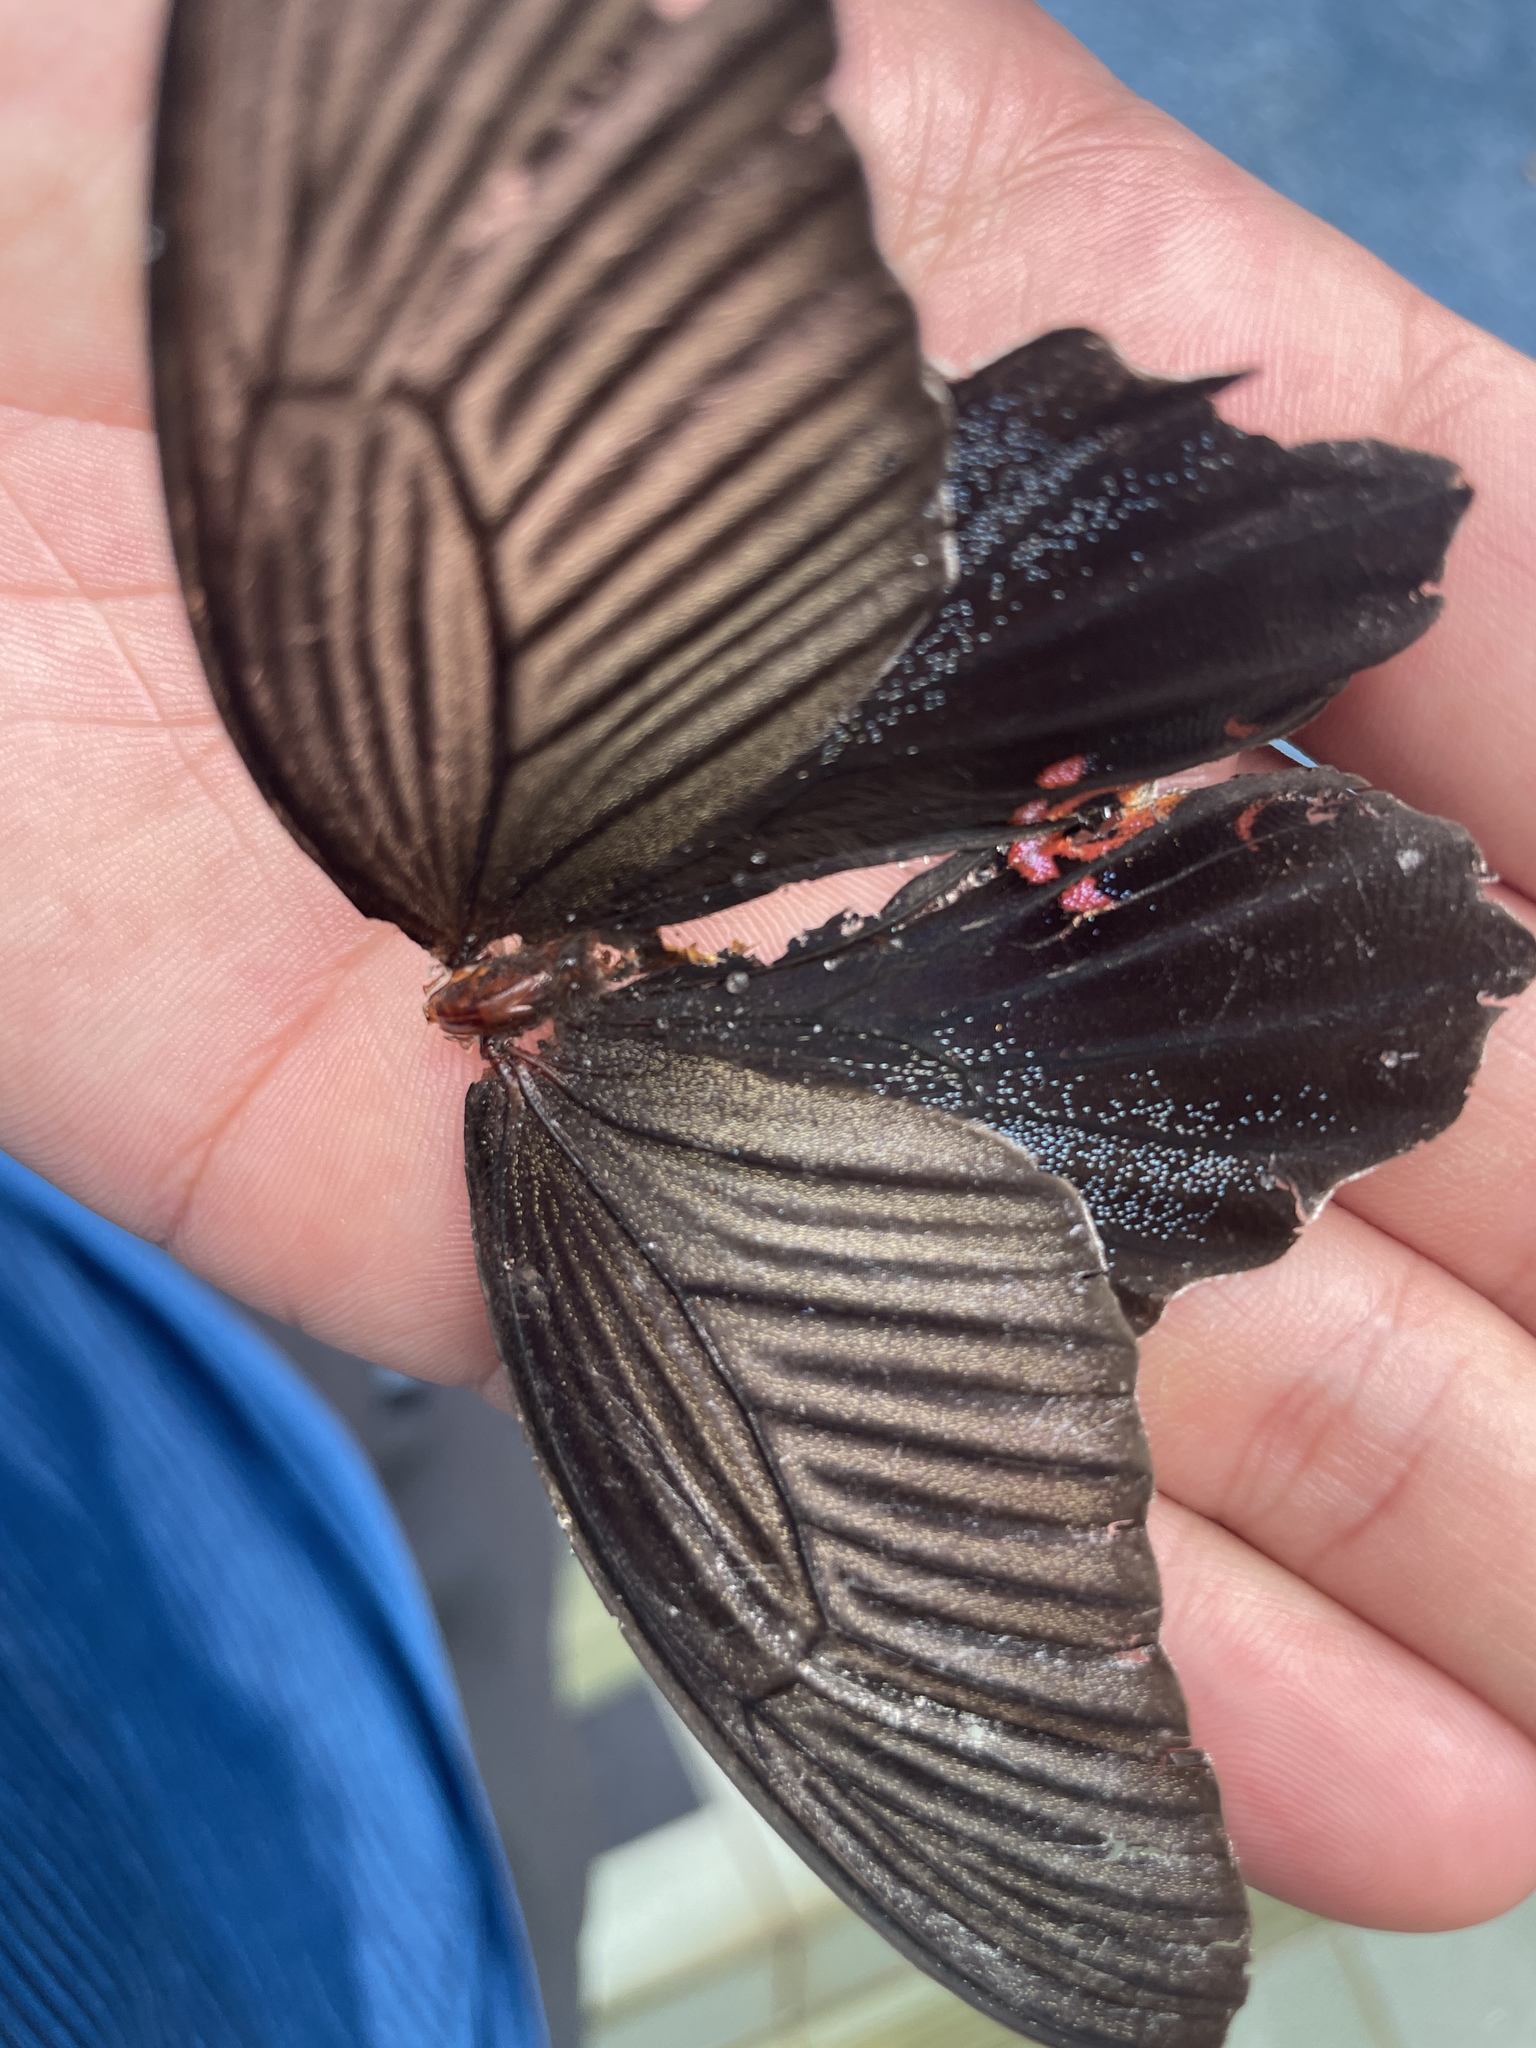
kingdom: Animalia
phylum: Arthropoda
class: Insecta
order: Lepidoptera
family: Papilionidae
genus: Papilio
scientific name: Papilio protenor
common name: Spangle
